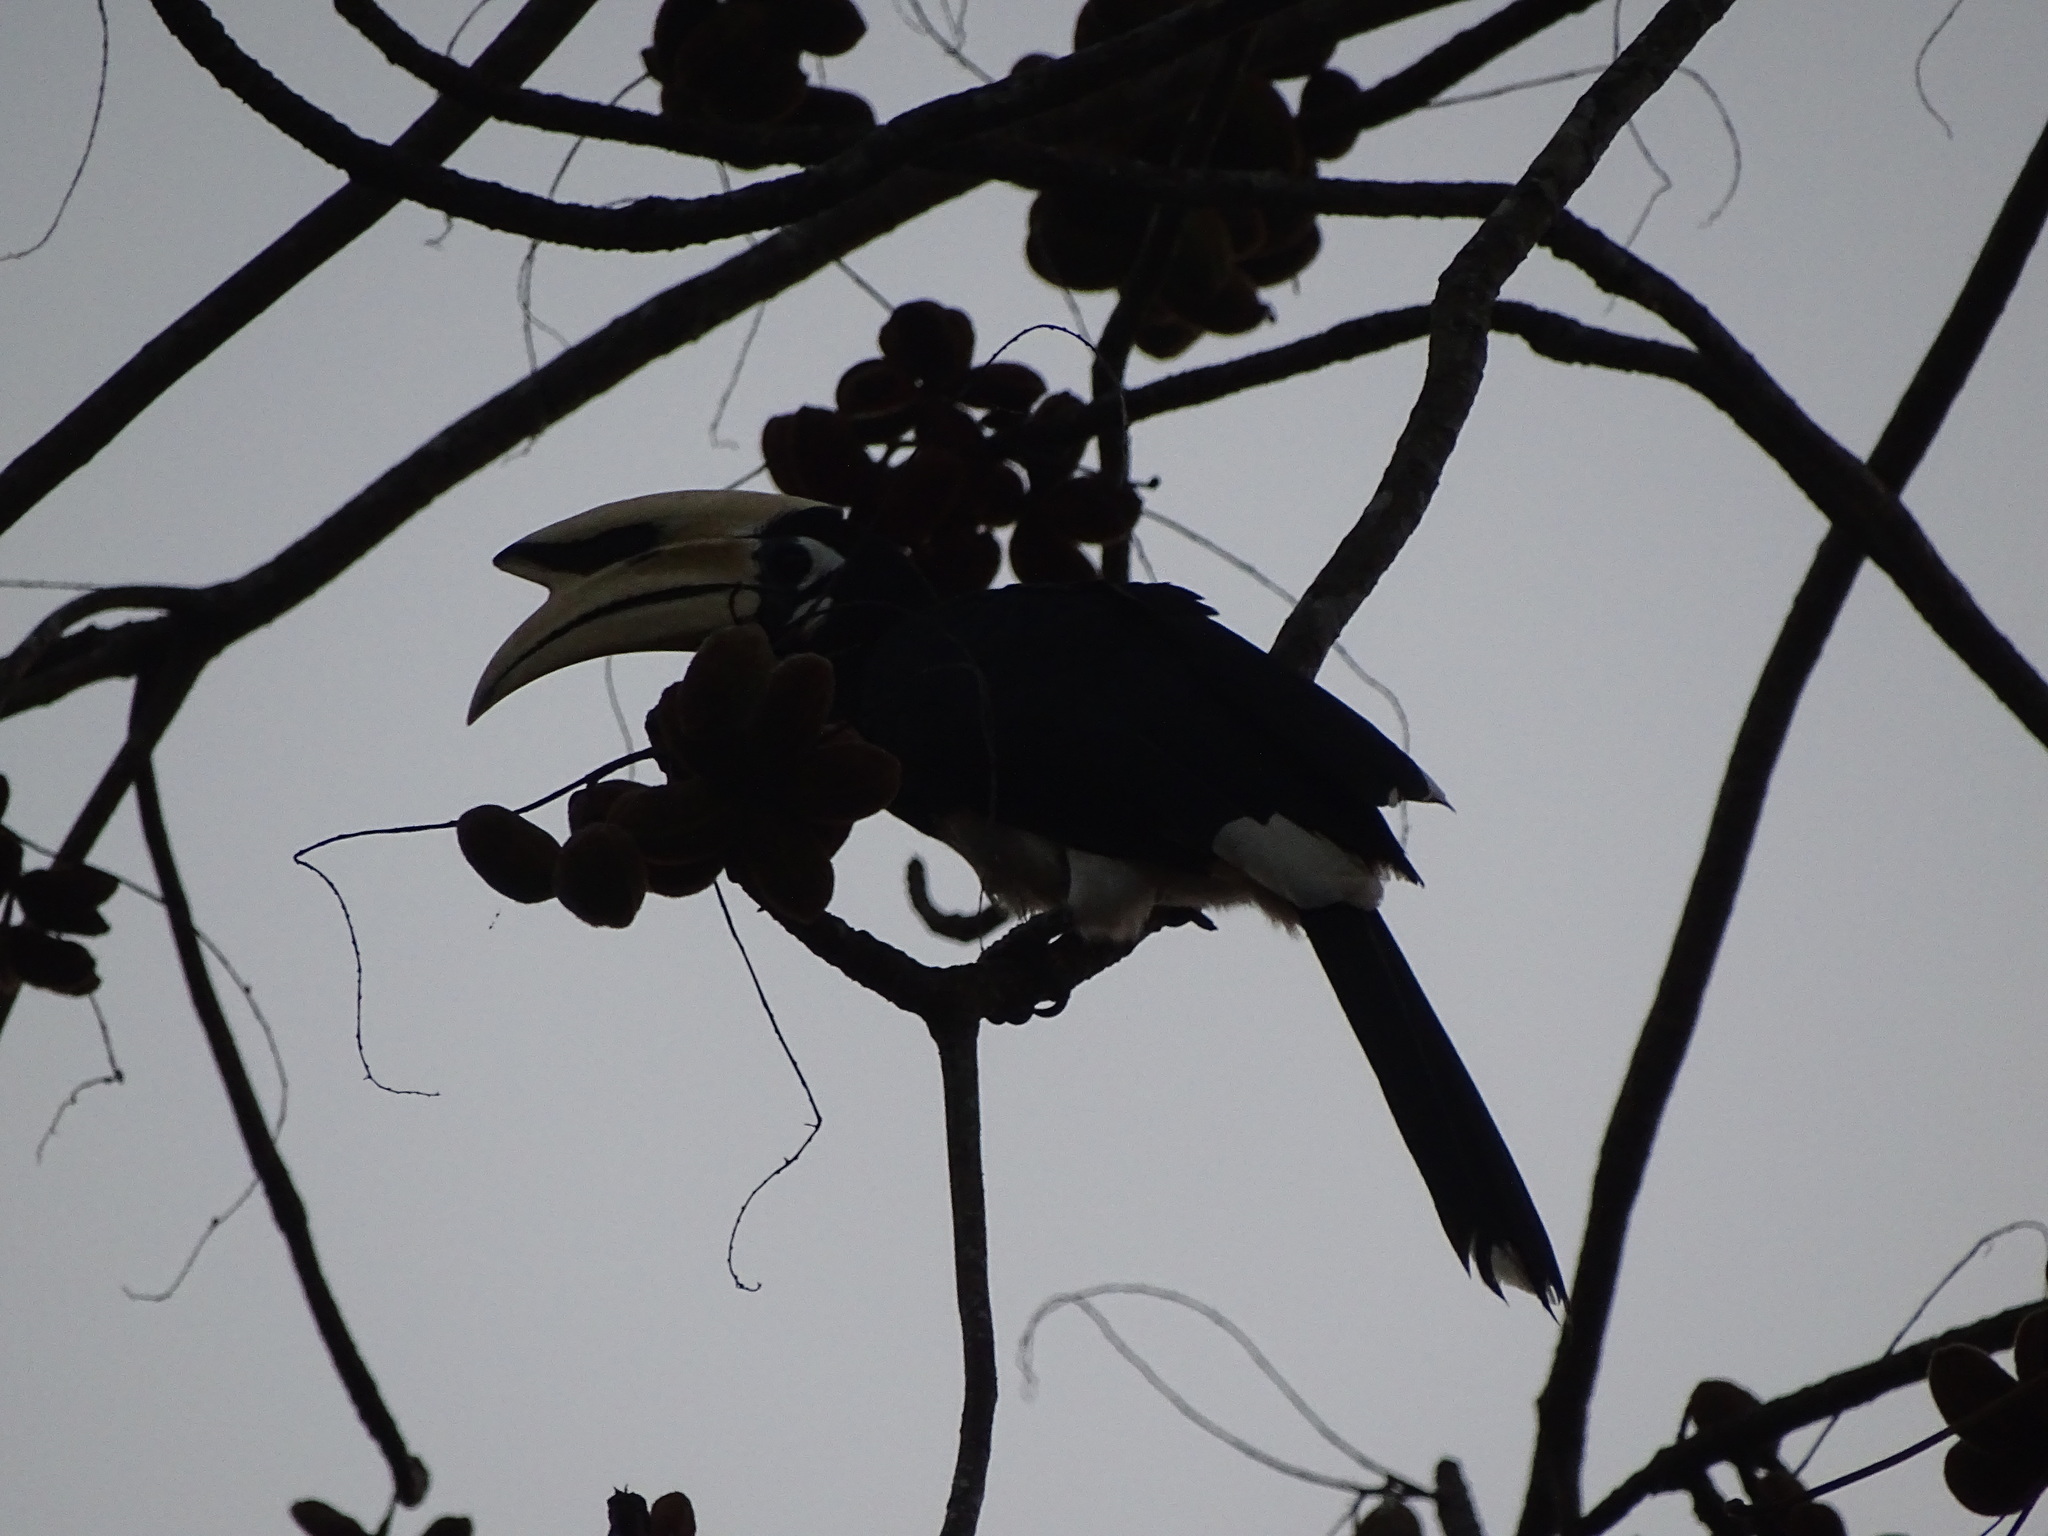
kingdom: Animalia
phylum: Chordata
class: Aves
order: Bucerotiformes
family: Bucerotidae
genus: Anthracoceros
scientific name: Anthracoceros albirostris
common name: Oriental pied-hornbill
